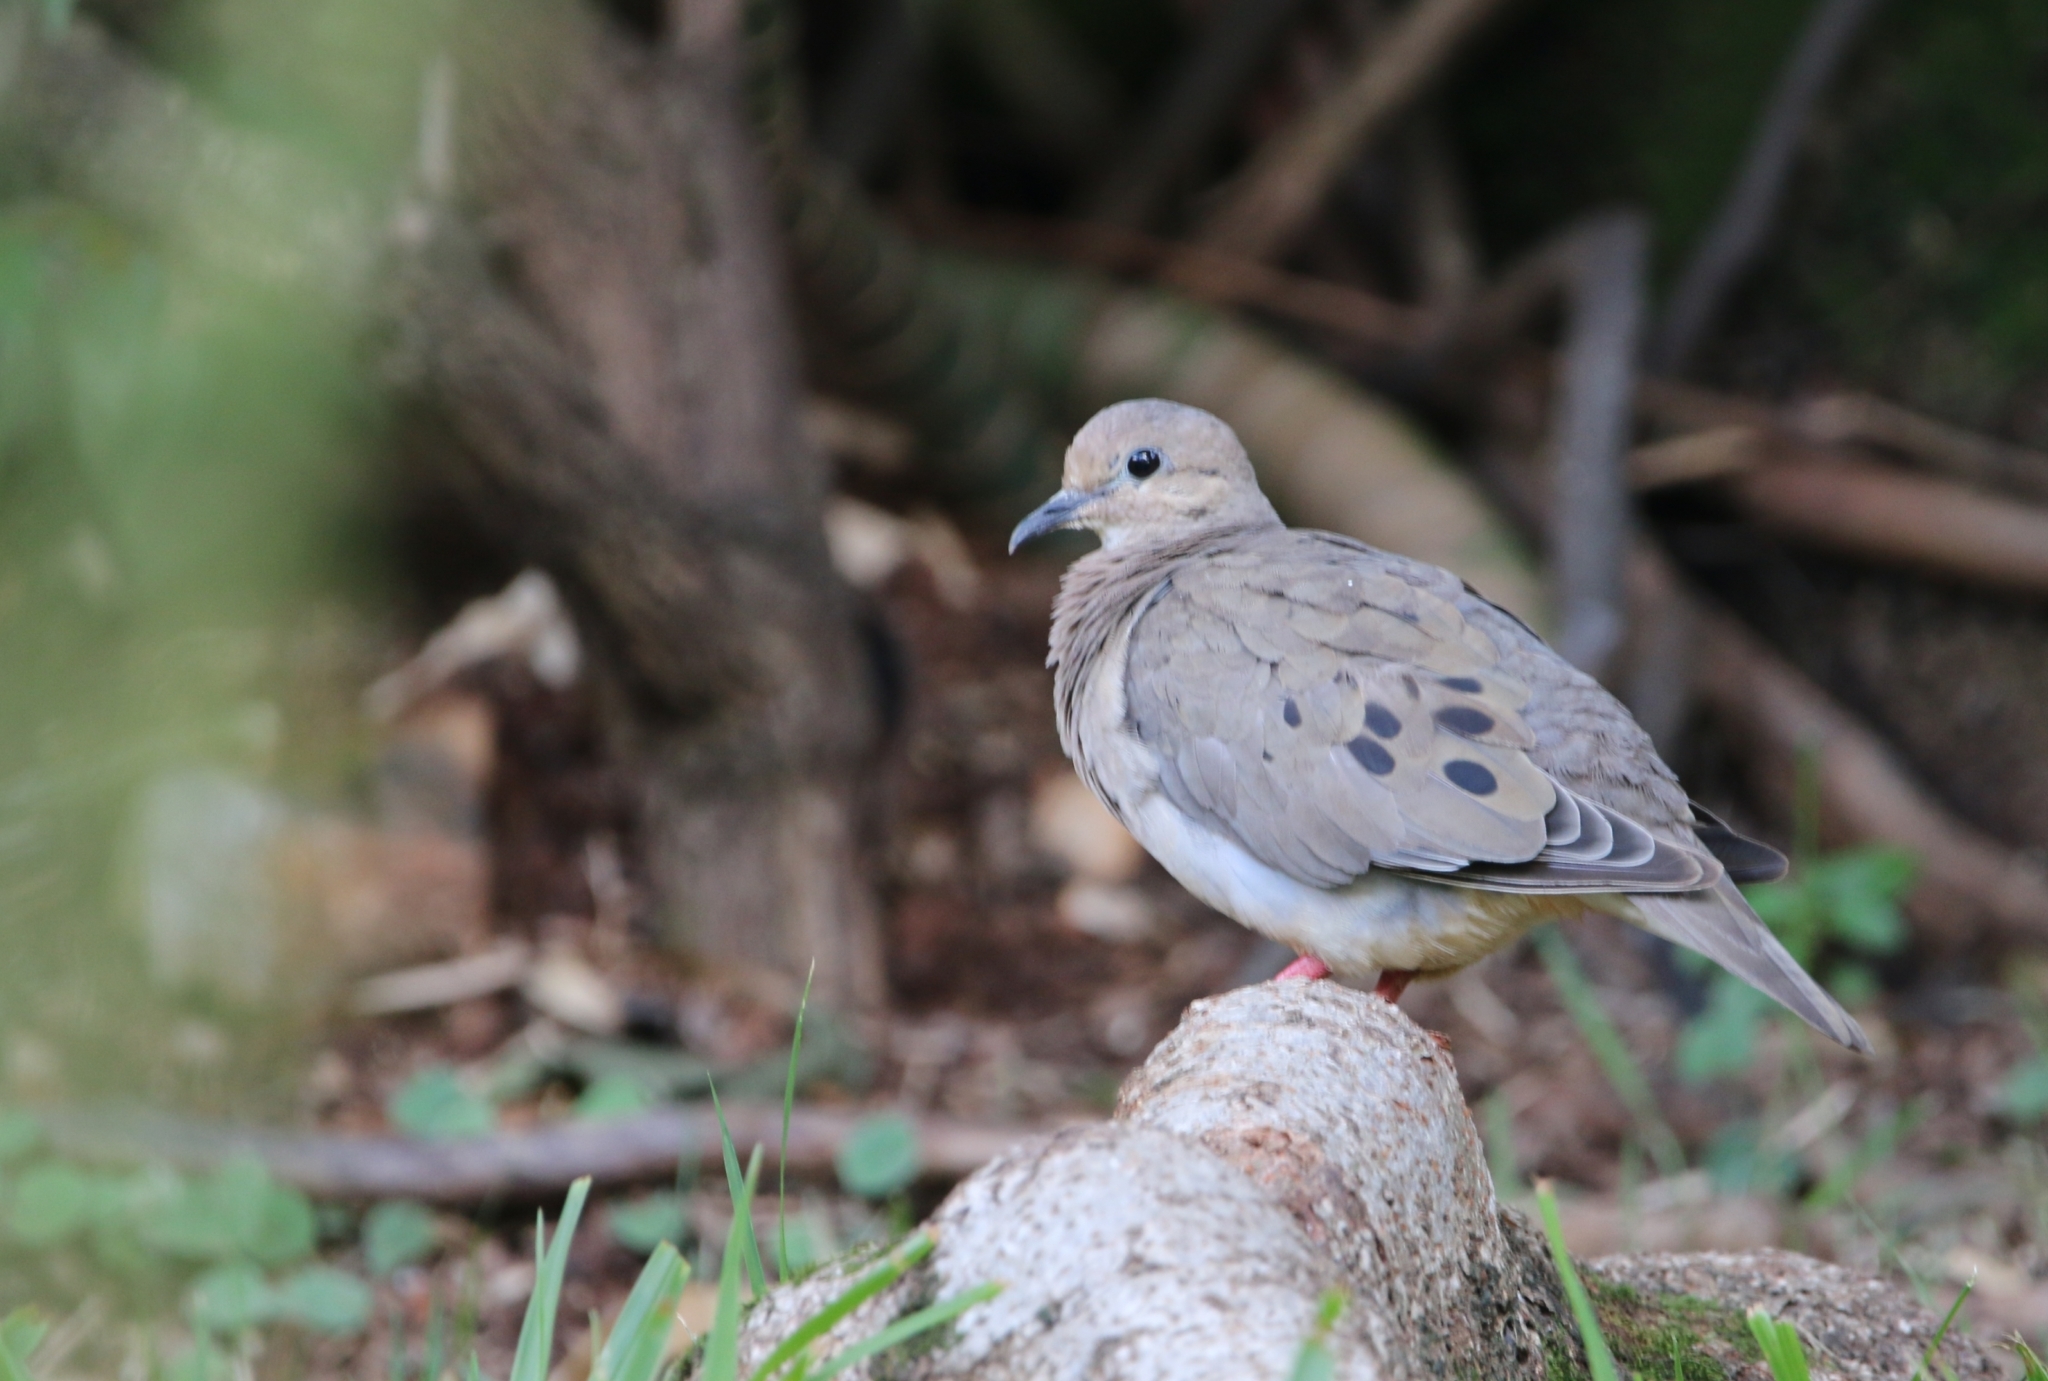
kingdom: Animalia
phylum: Chordata
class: Aves
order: Columbiformes
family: Columbidae
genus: Zenaida
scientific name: Zenaida auriculata
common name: Eared dove
